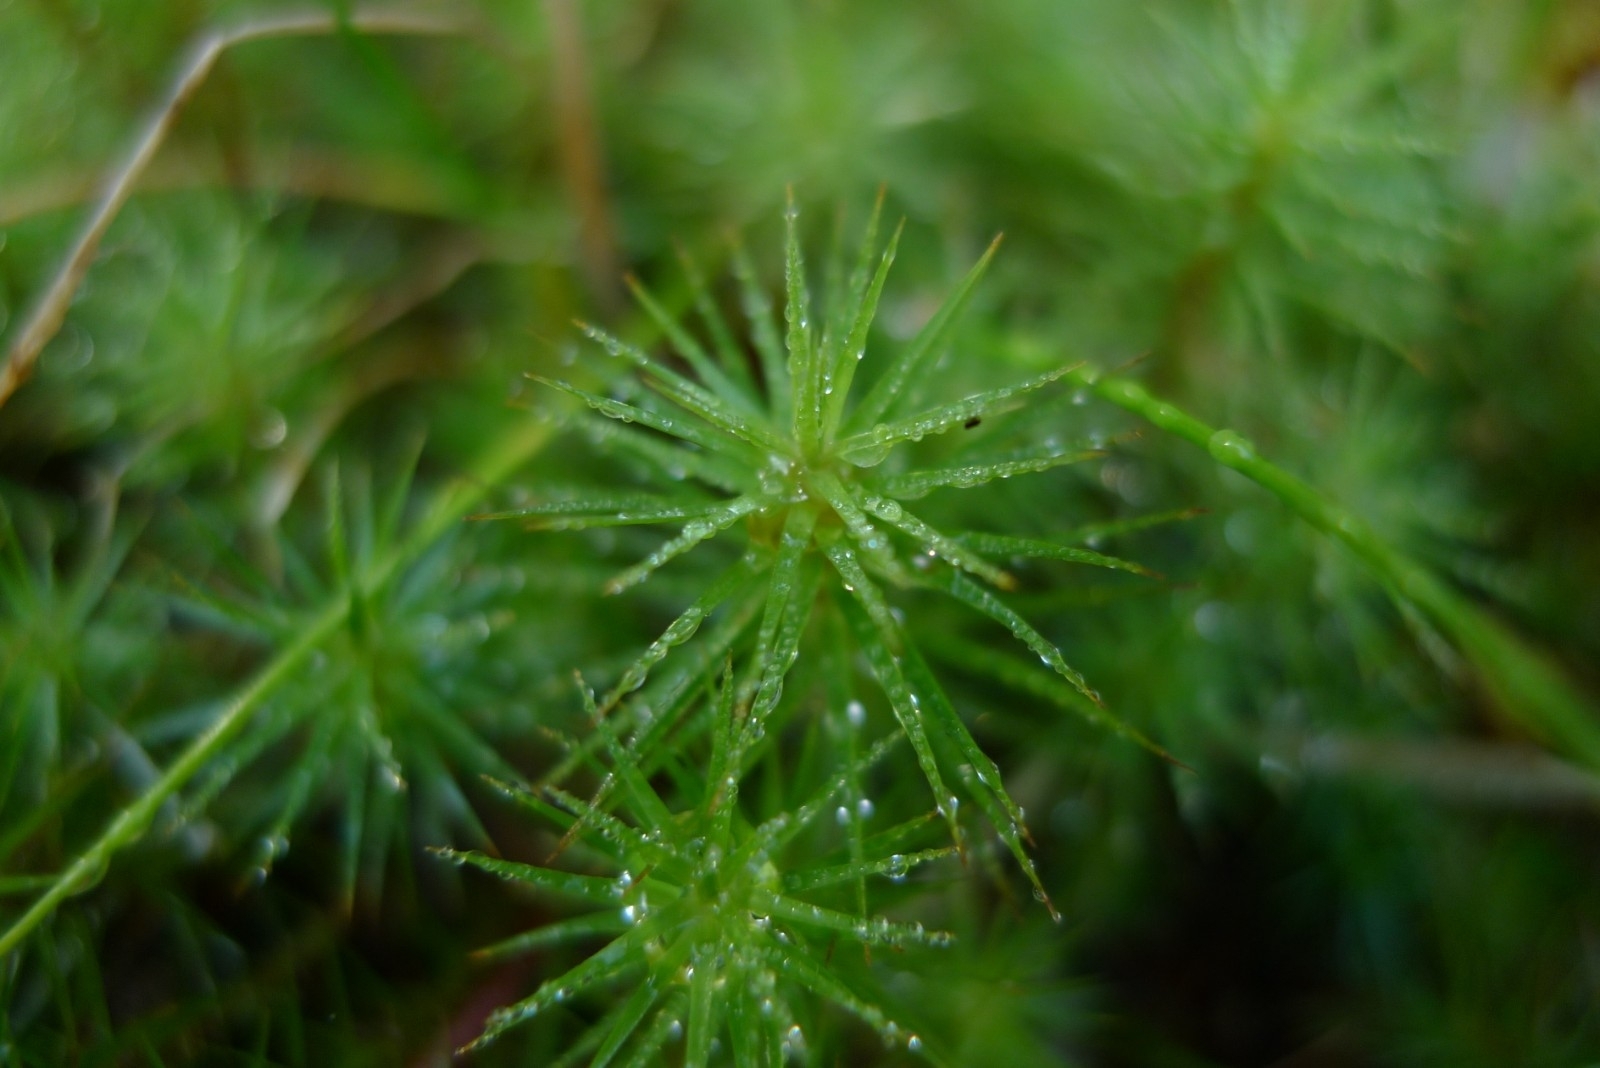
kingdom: Plantae
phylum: Bryophyta
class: Polytrichopsida
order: Polytrichales
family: Polytrichaceae
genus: Polytrichum
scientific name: Polytrichum commune
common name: Common haircap
